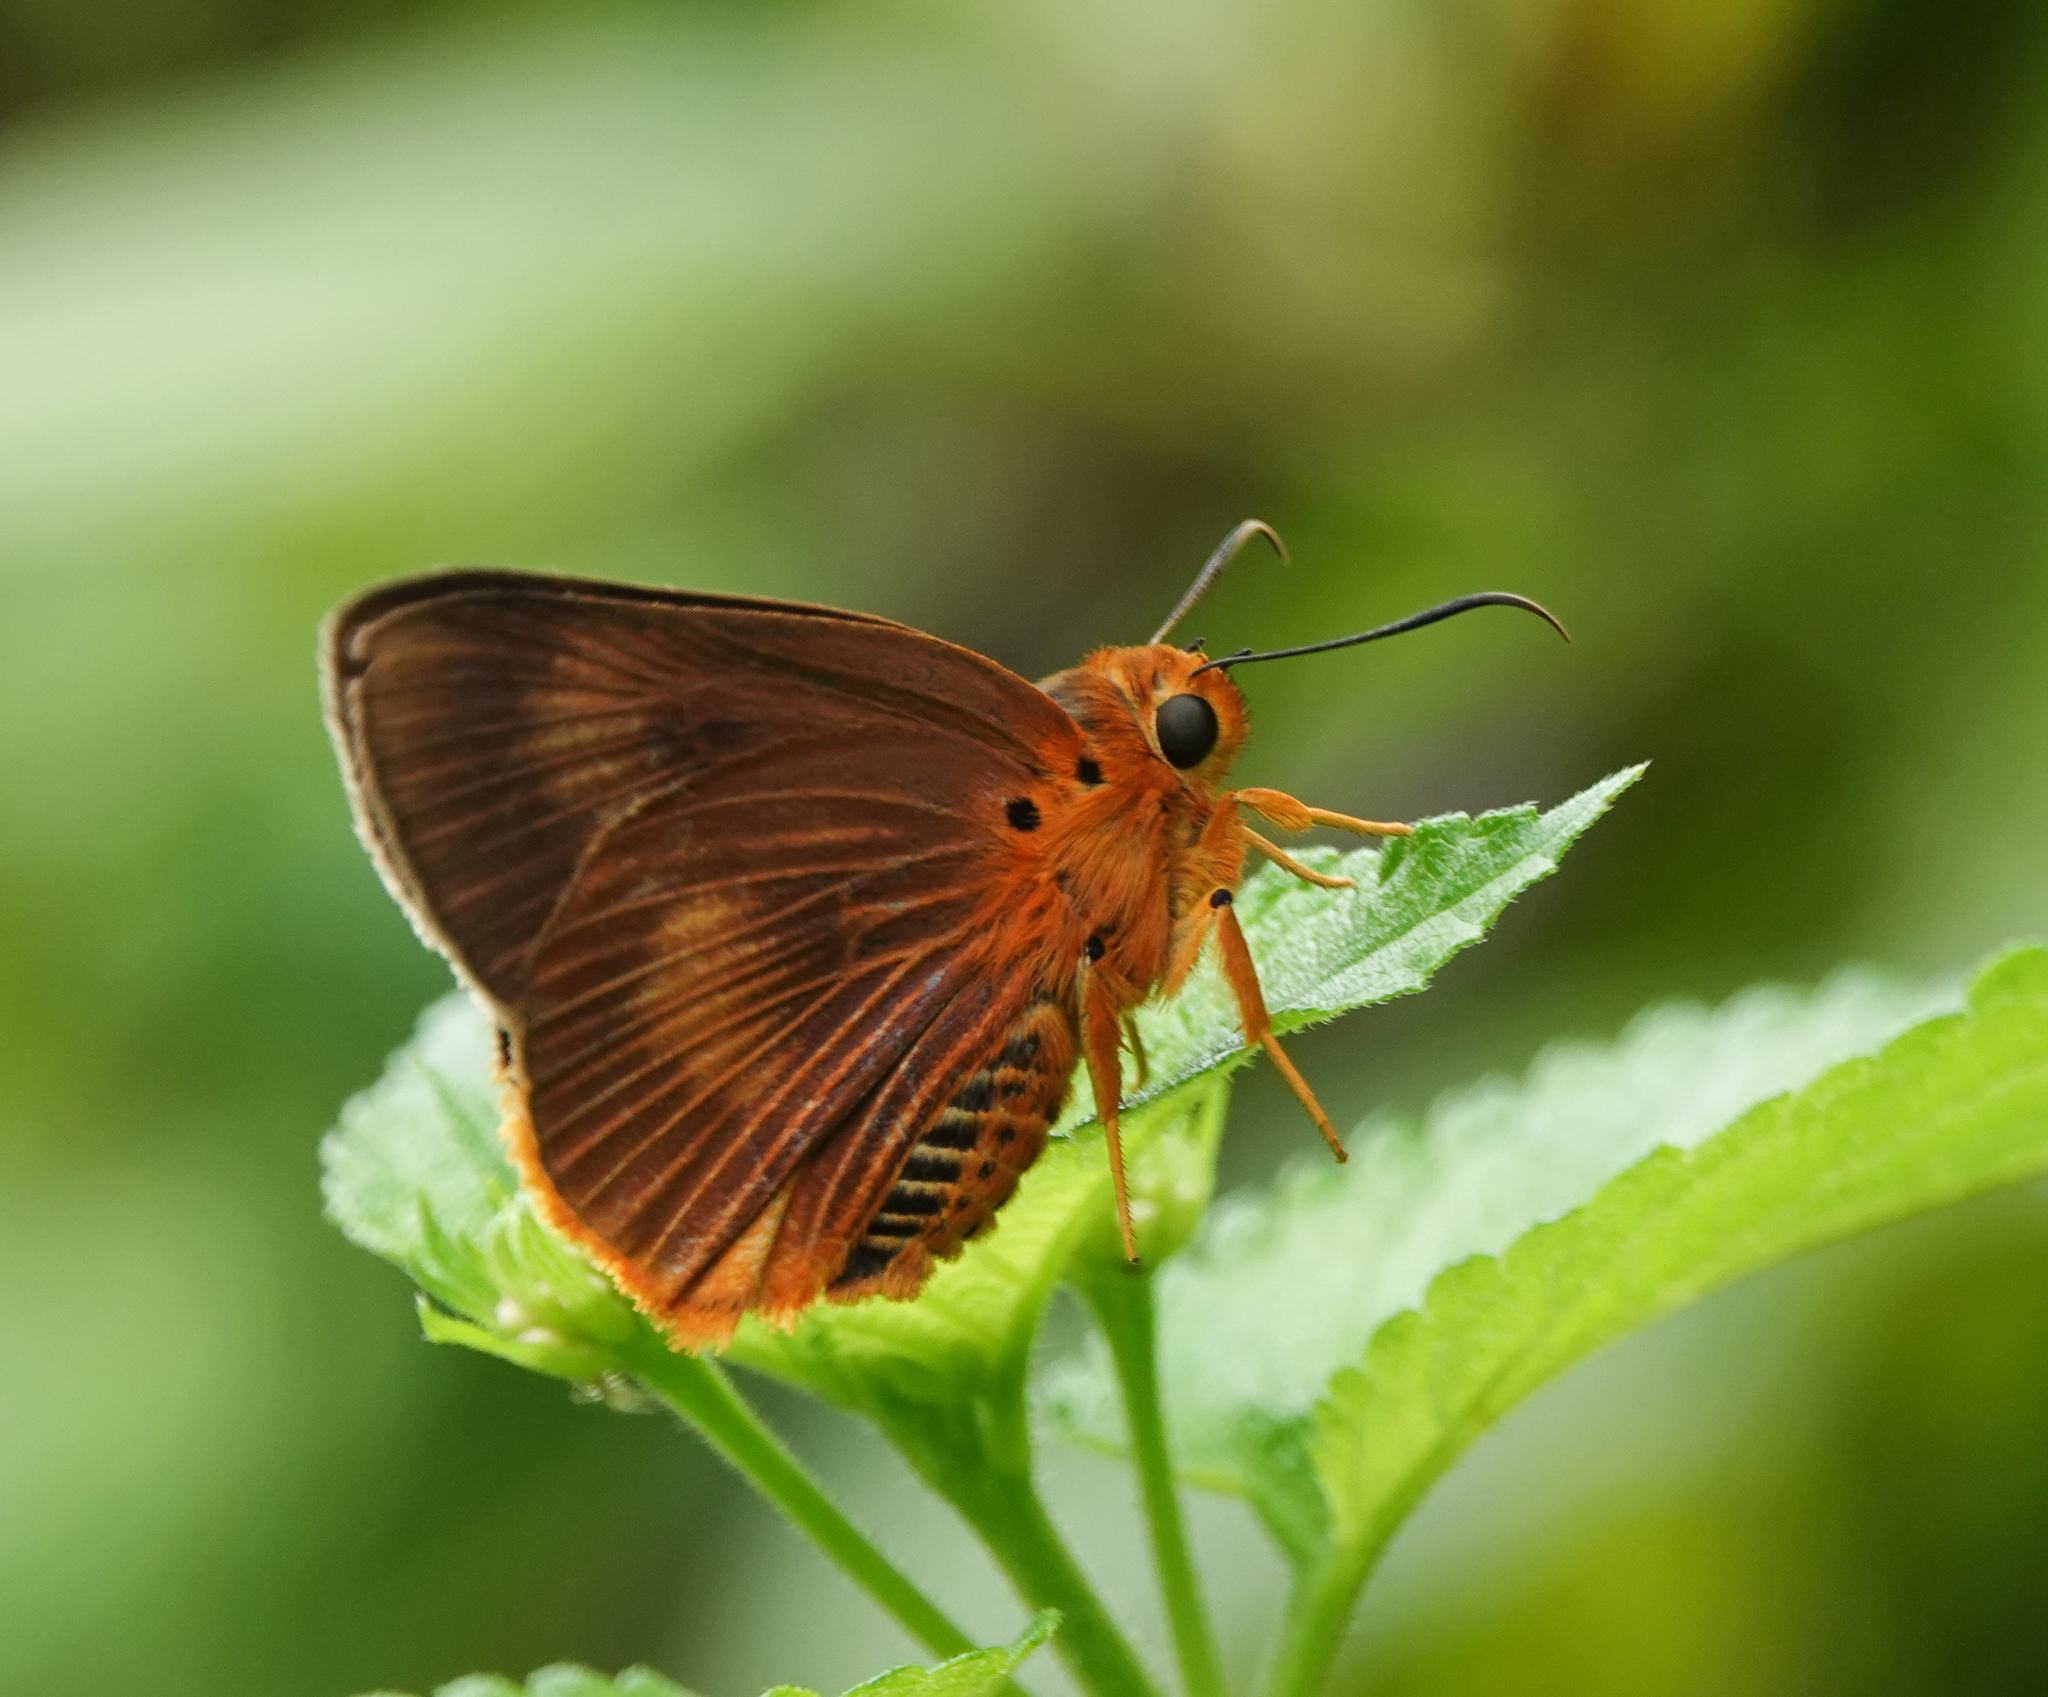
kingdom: Animalia
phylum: Arthropoda
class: Insecta
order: Lepidoptera
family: Hesperiidae
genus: Bibasis
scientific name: Bibasis harisa
